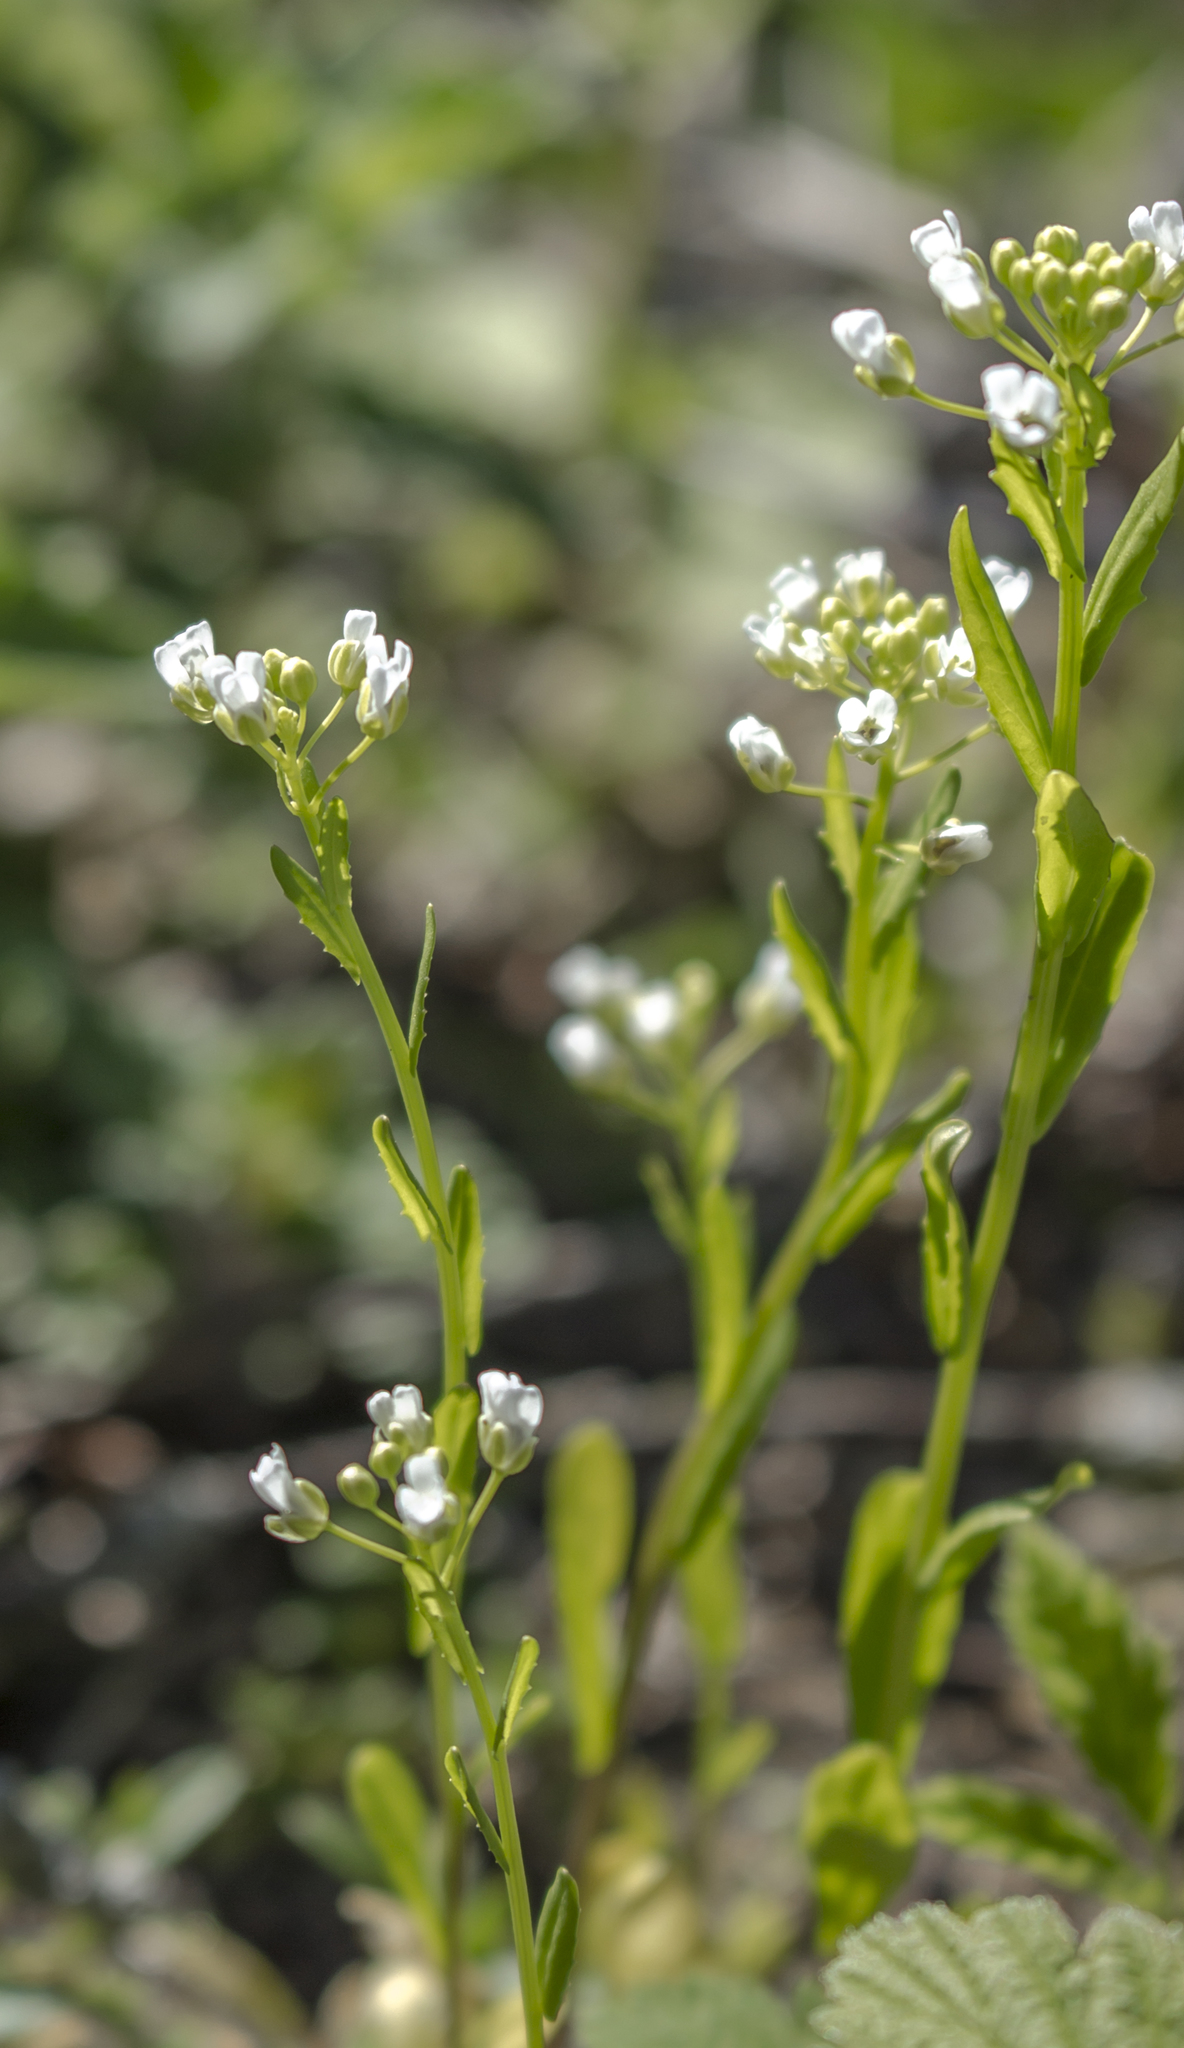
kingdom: Plantae
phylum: Tracheophyta
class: Magnoliopsida
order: Brassicales
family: Brassicaceae
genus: Thlaspi
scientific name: Thlaspi arvense
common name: Field pennycress
